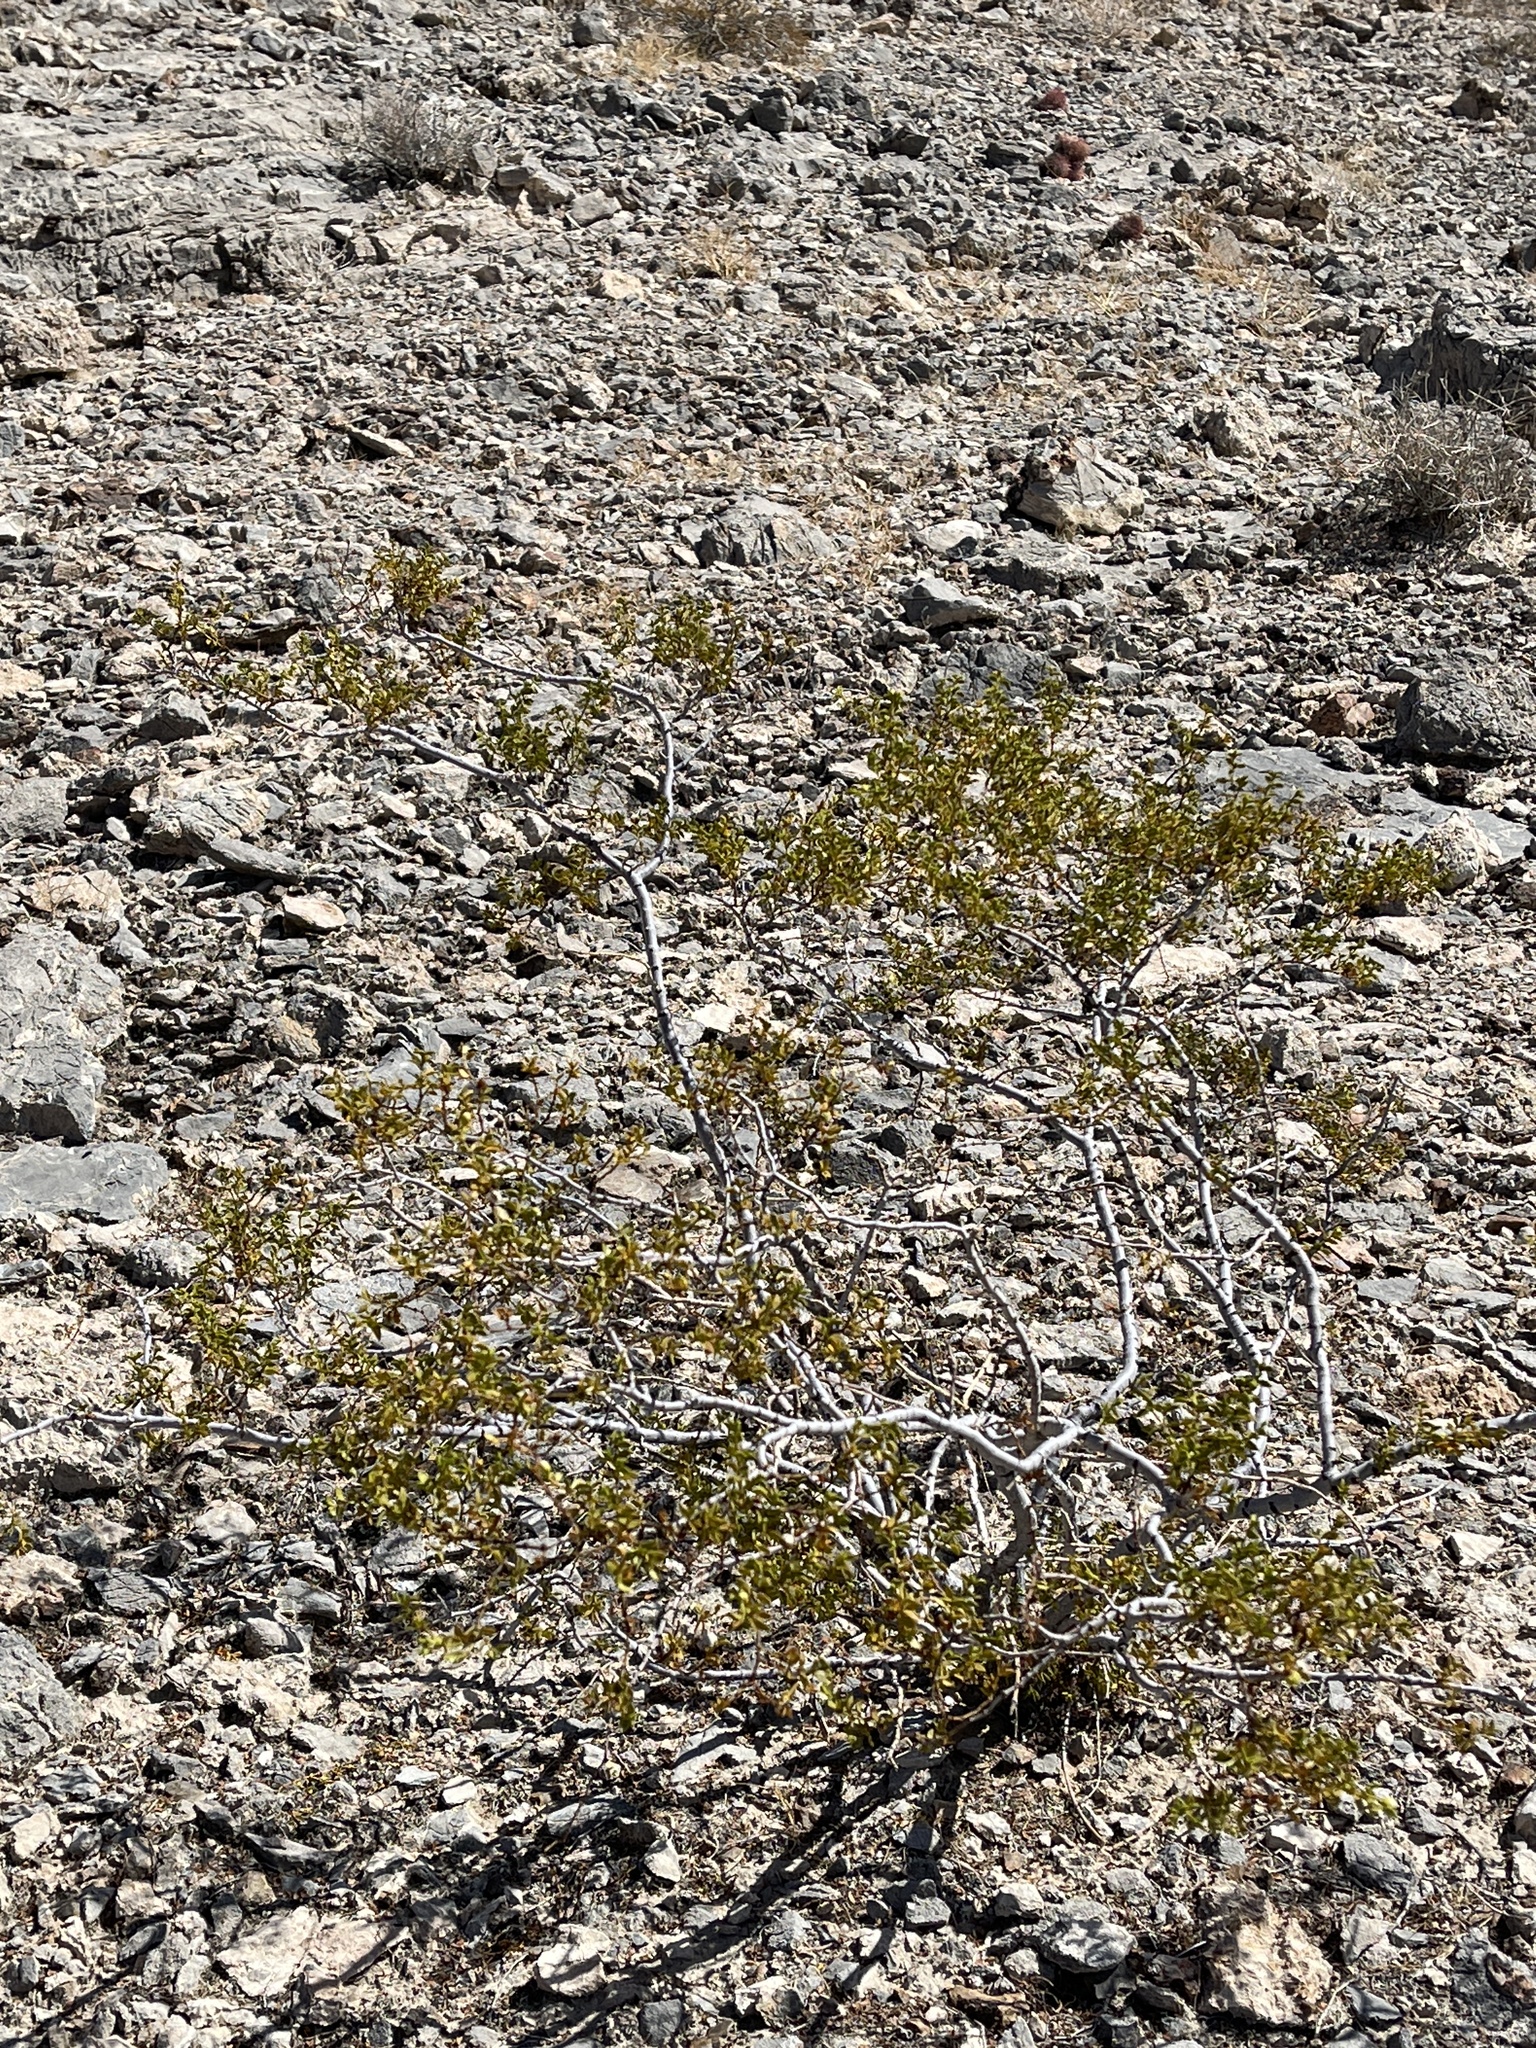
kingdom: Plantae
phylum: Tracheophyta
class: Magnoliopsida
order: Zygophyllales
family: Zygophyllaceae
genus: Larrea
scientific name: Larrea tridentata
